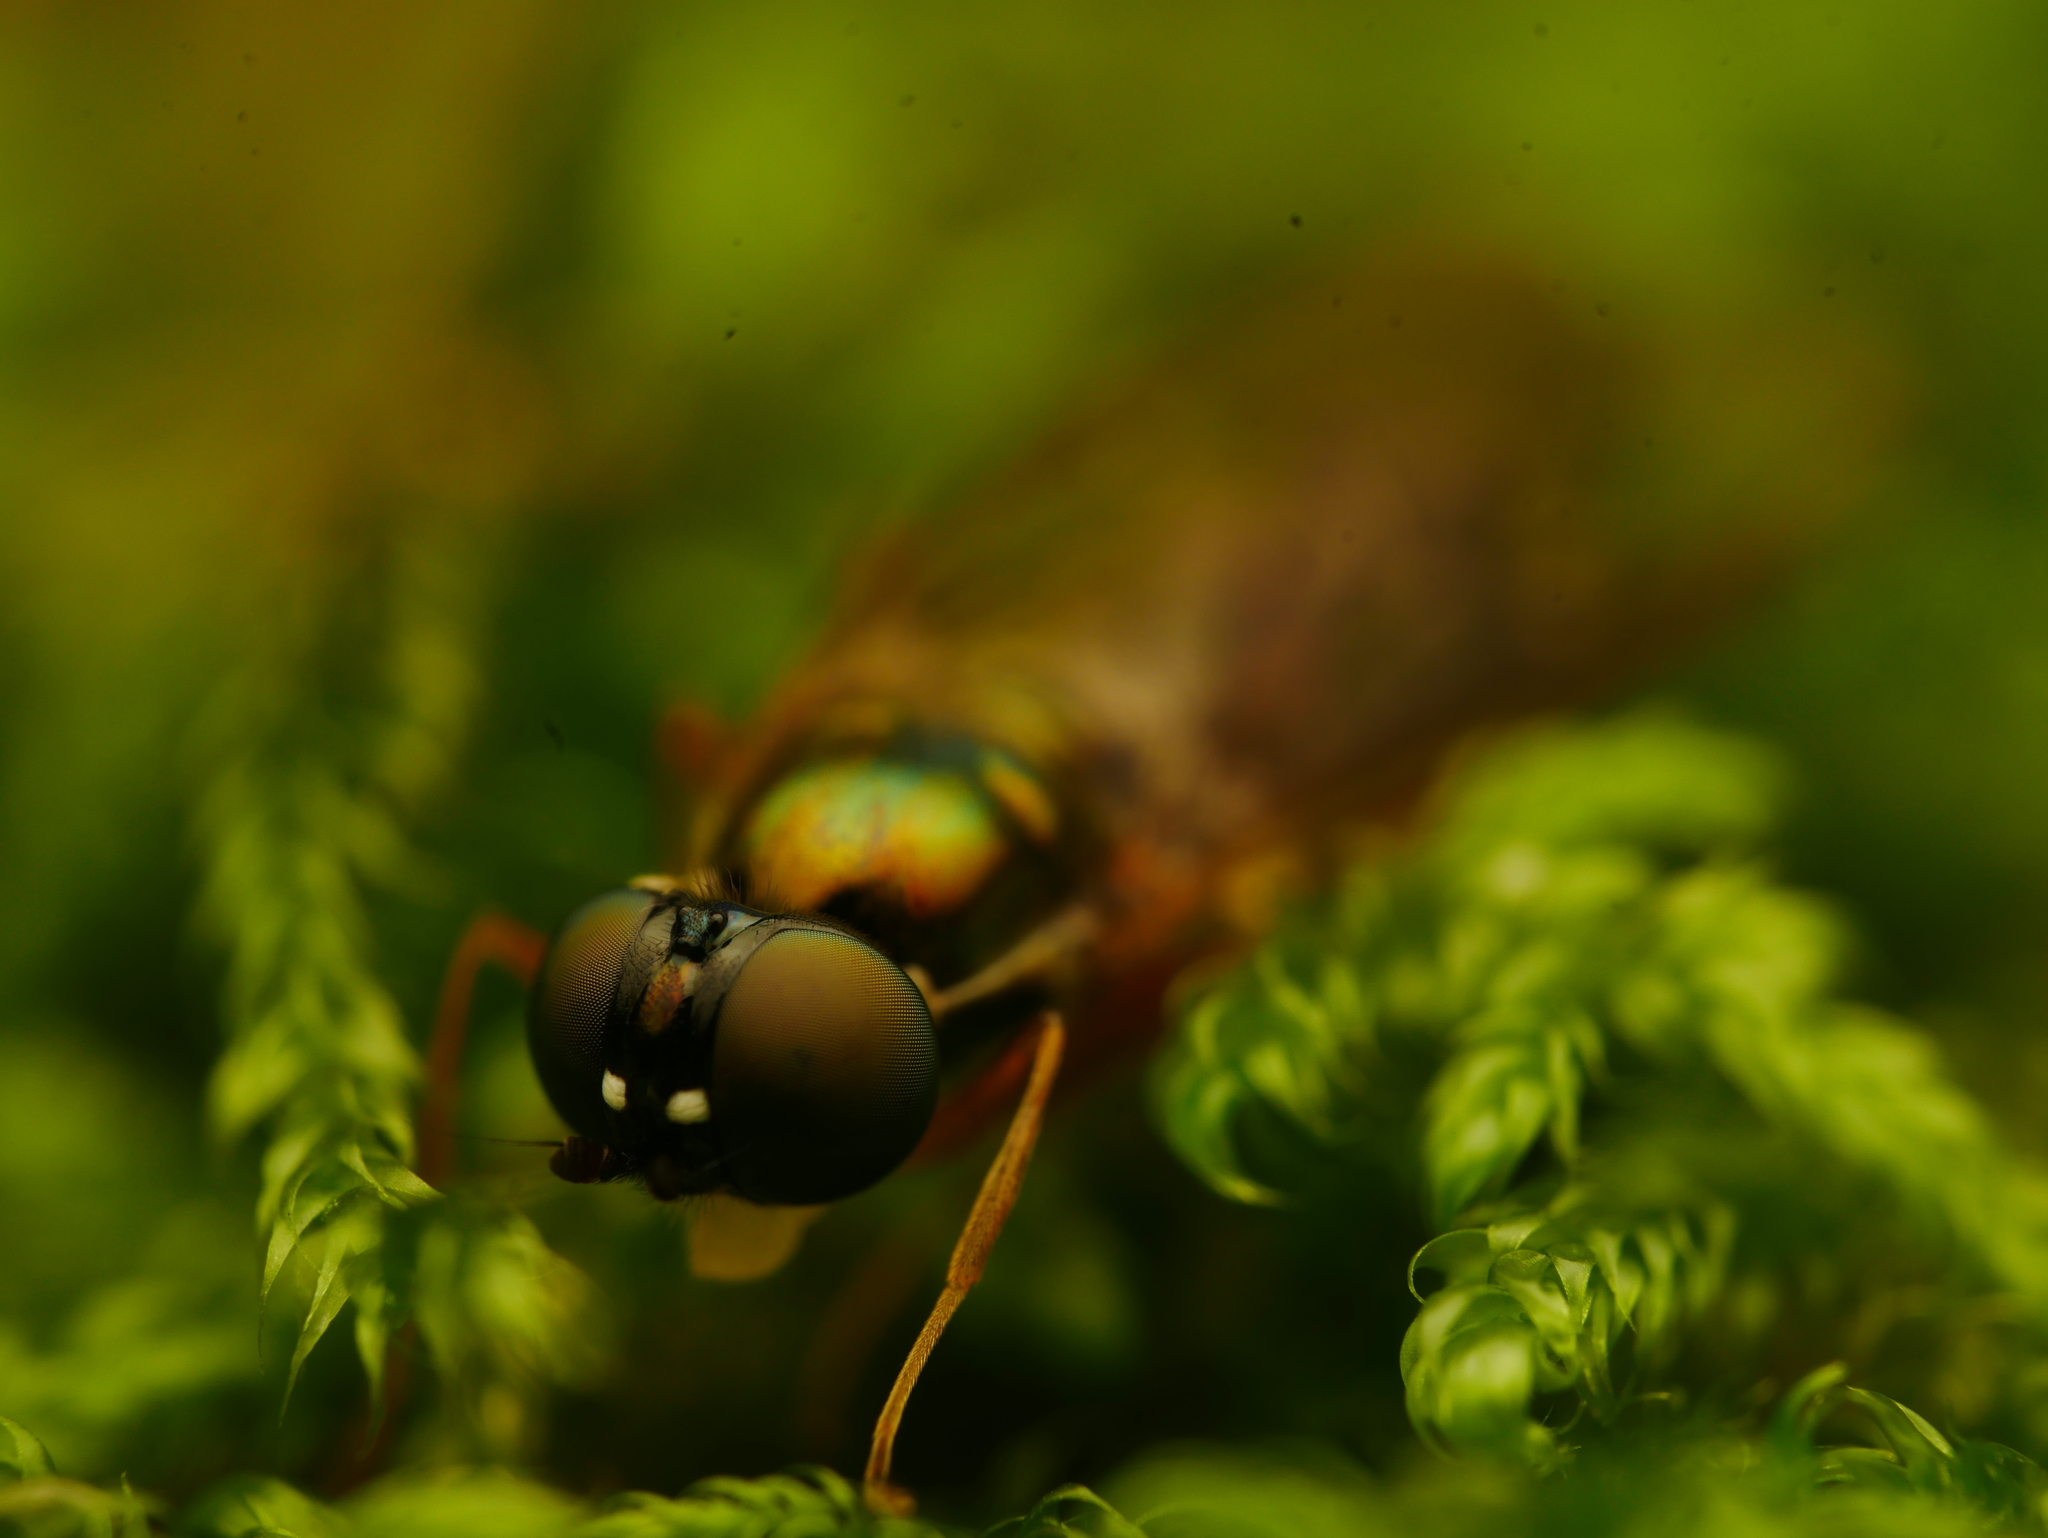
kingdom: Animalia
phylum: Arthropoda
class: Insecta
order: Diptera
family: Stratiomyidae
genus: Sargus
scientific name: Sargus bipunctatus
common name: Twin-spot centurion
